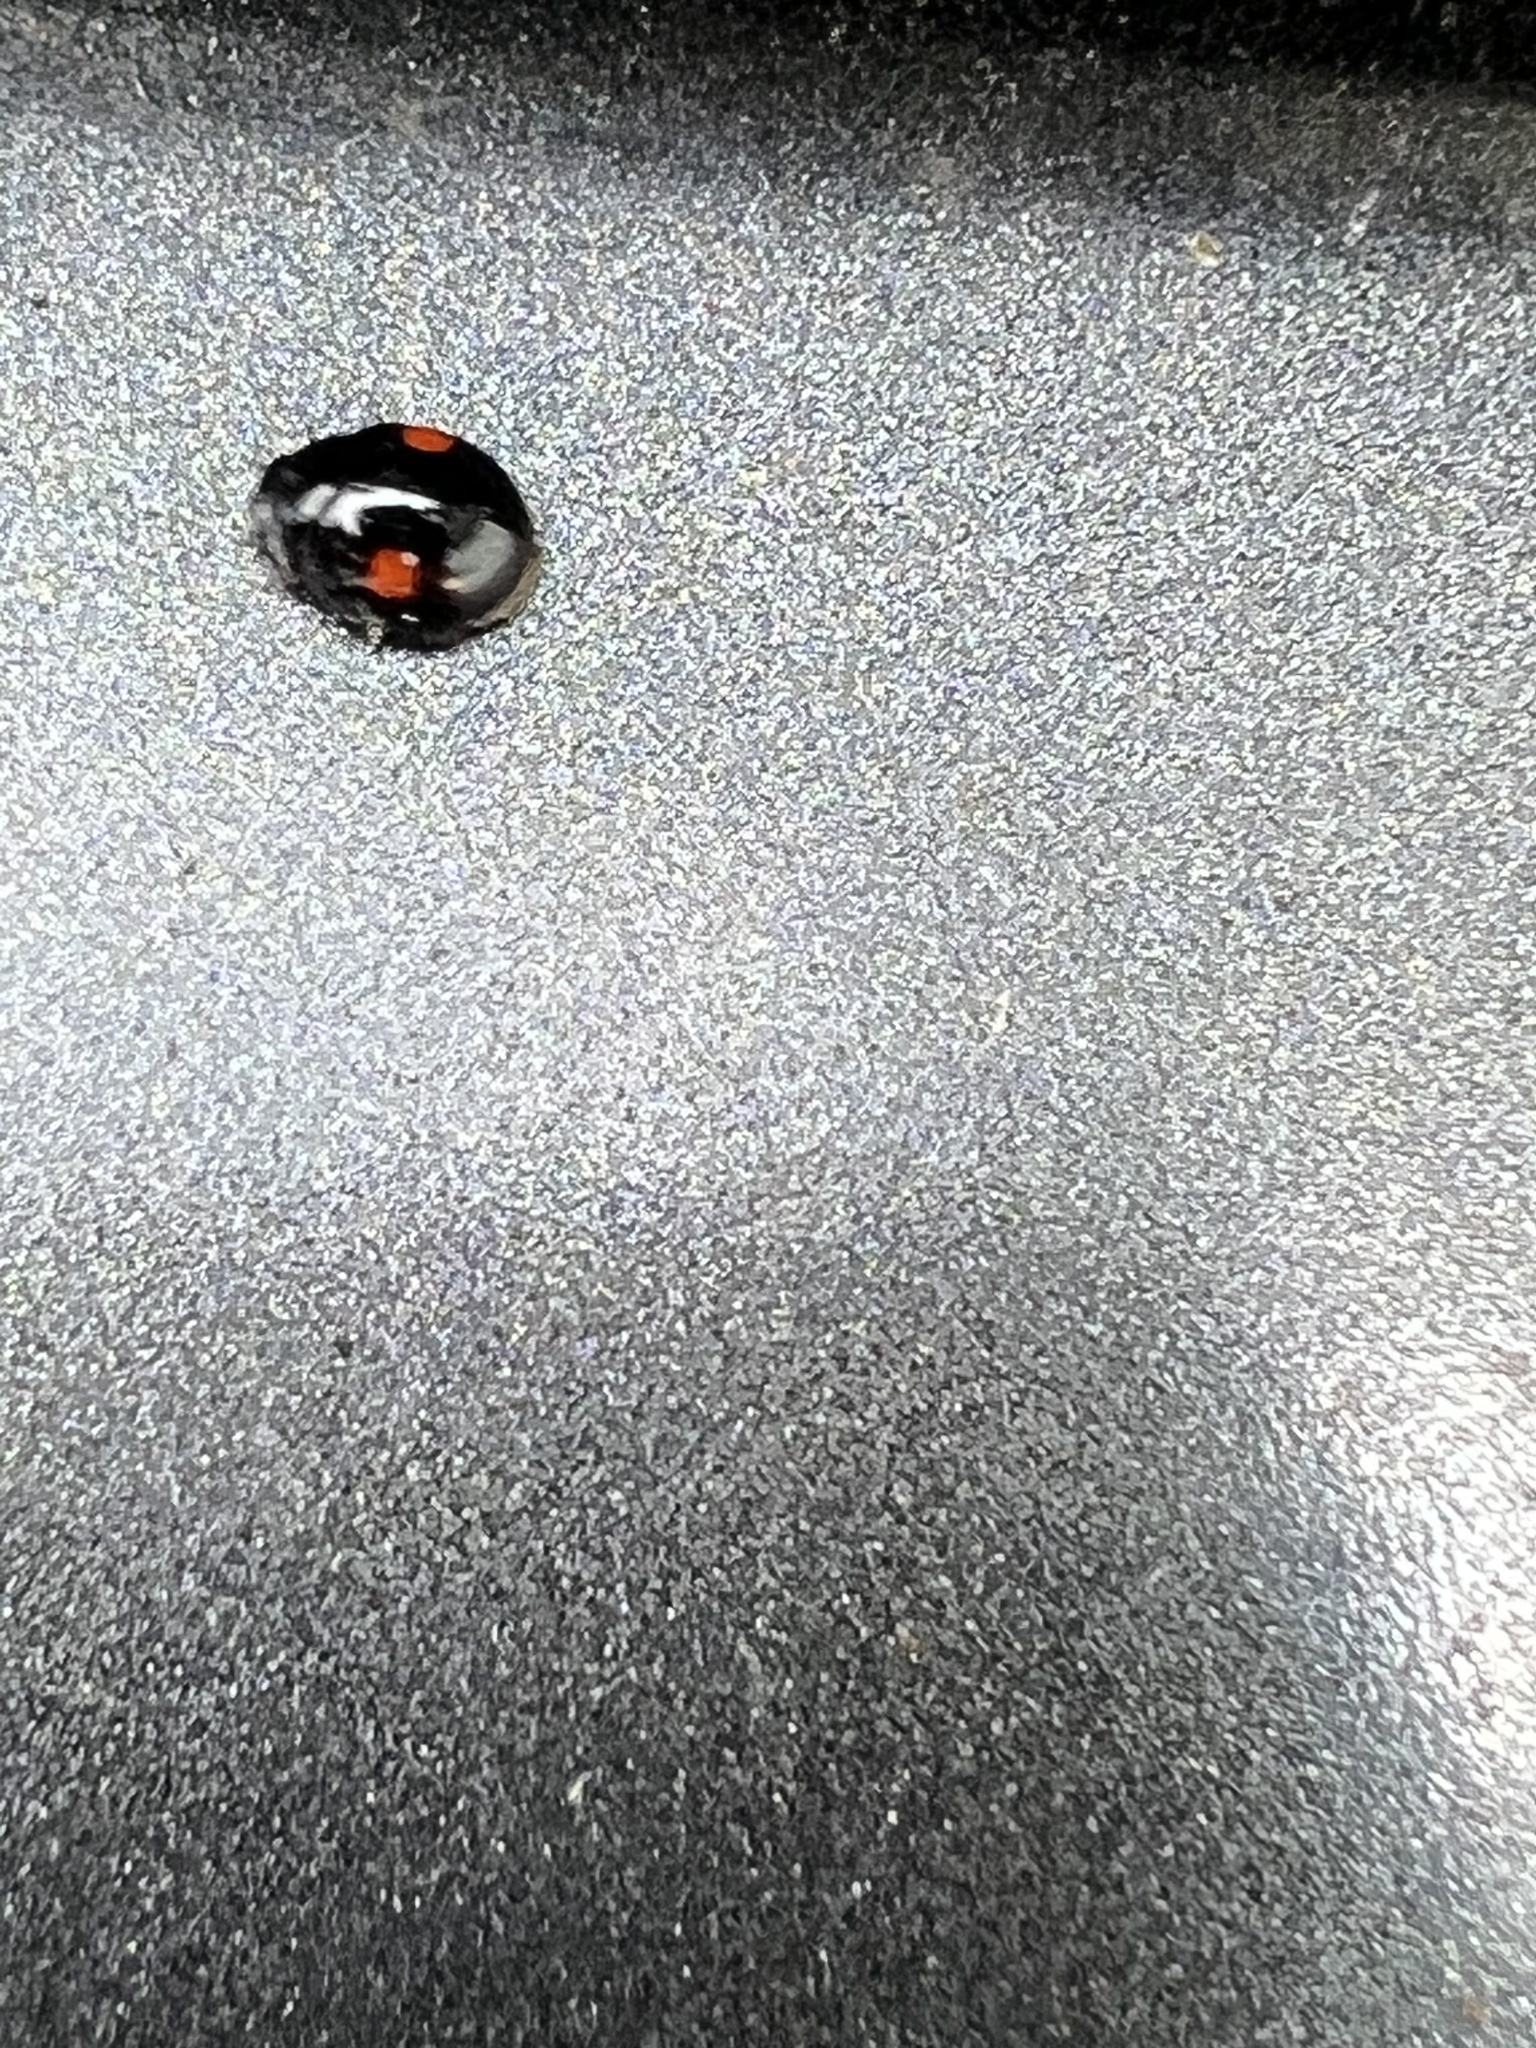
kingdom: Animalia
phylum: Arthropoda
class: Insecta
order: Coleoptera
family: Coccinellidae
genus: Chilocorus
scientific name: Chilocorus stigma
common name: Twicestabbed lady beetle
